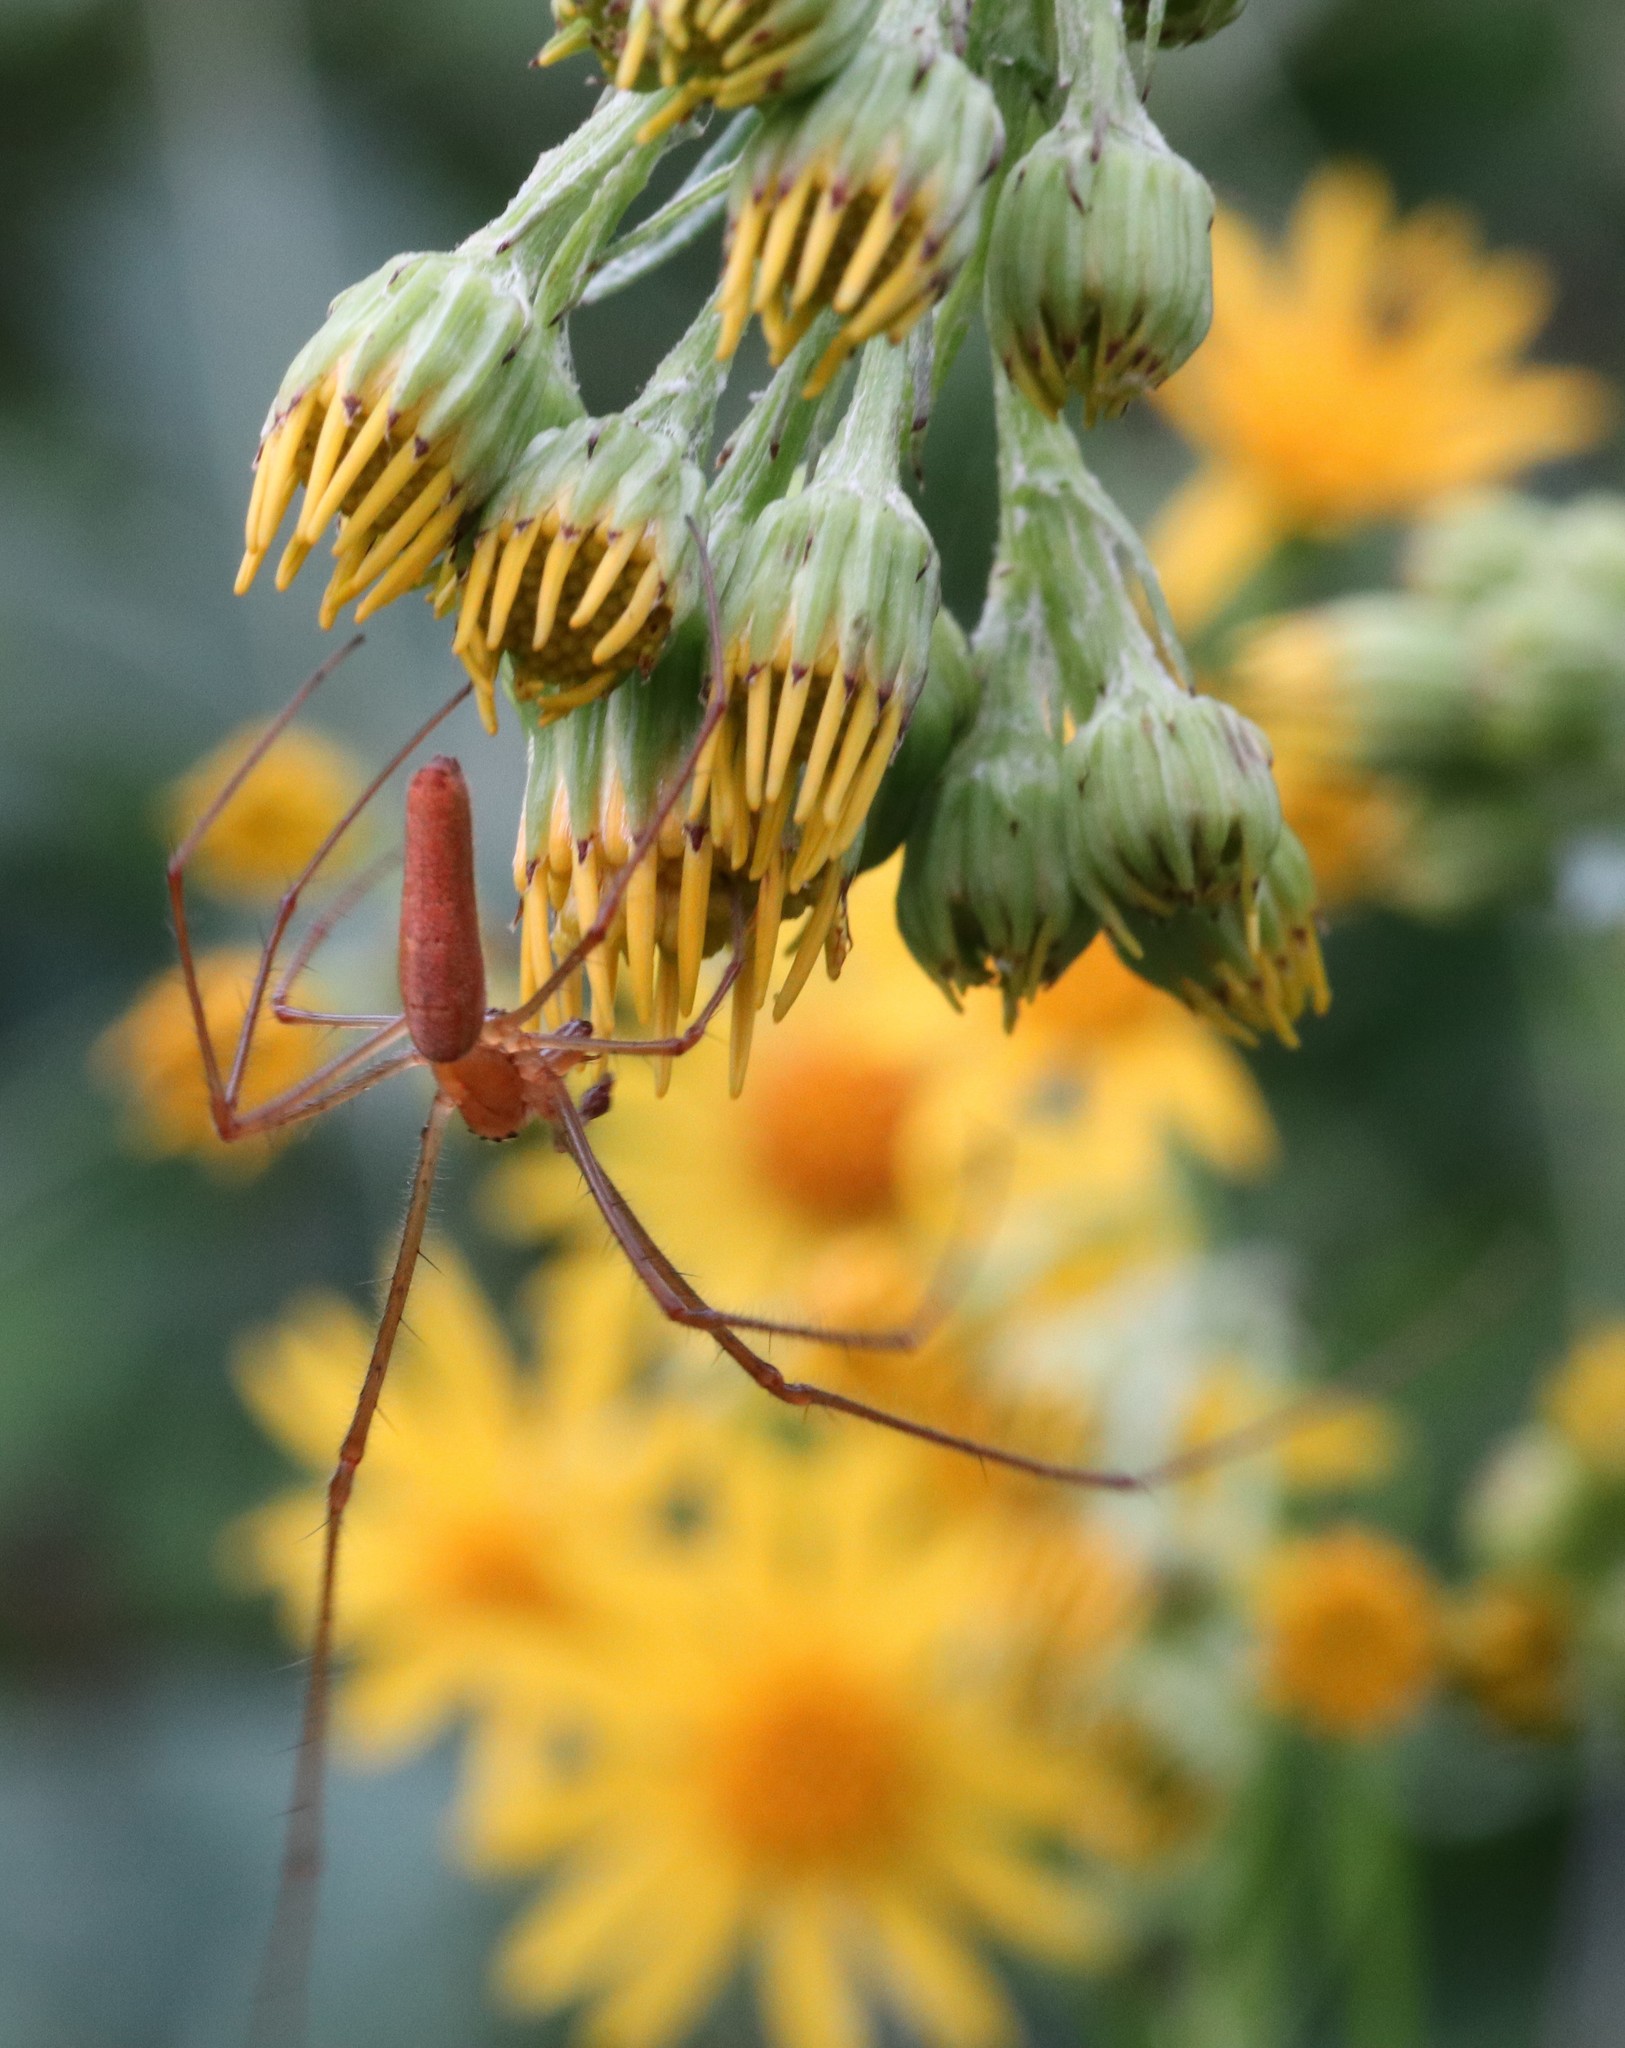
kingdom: Animalia
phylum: Arthropoda
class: Arachnida
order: Araneae
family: Tetragnathidae
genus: Tetragnatha
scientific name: Tetragnatha montana
